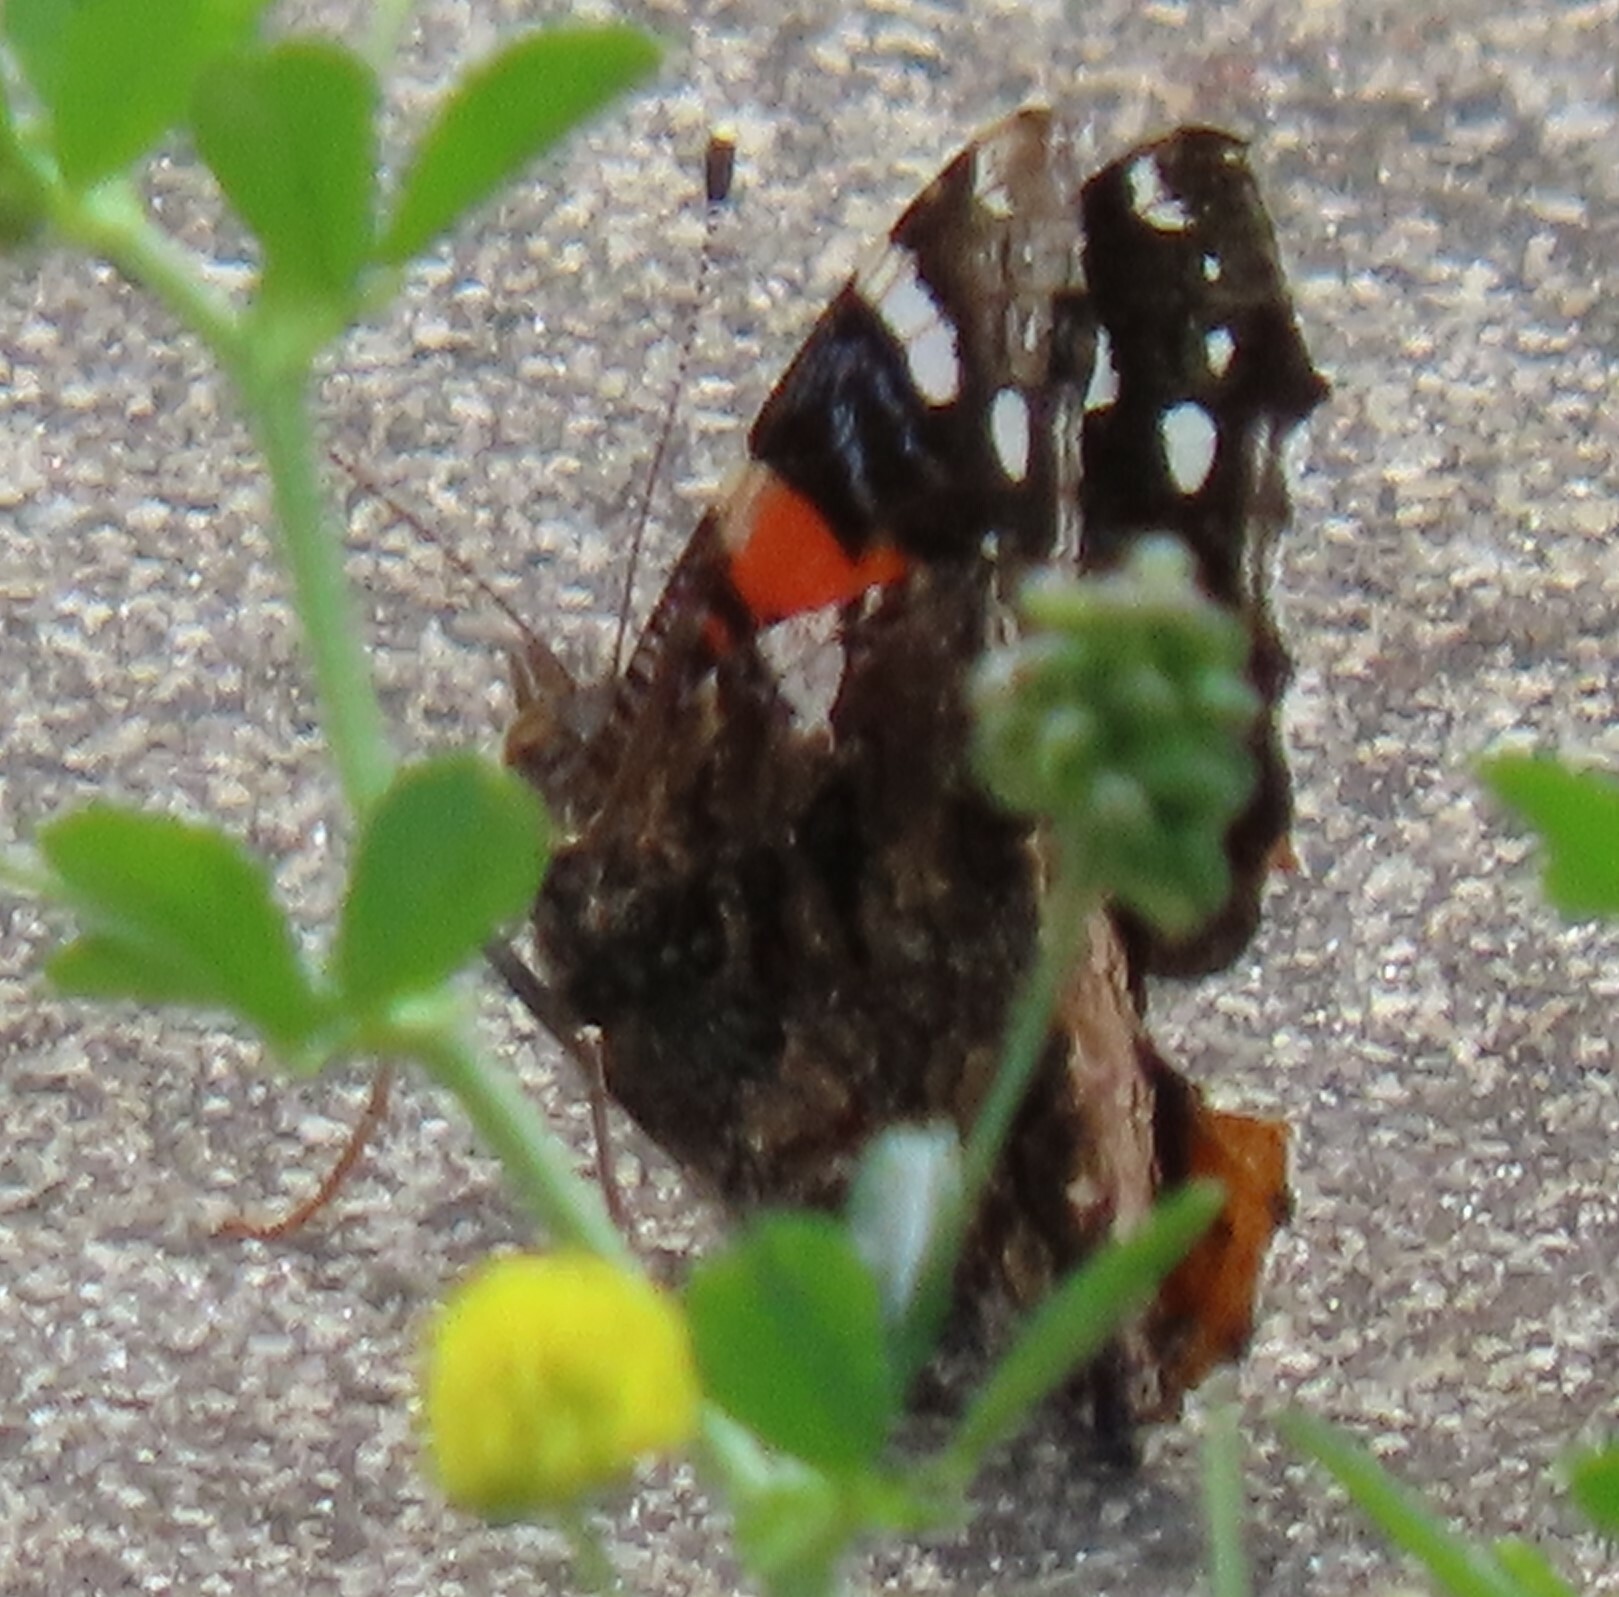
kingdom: Animalia
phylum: Arthropoda
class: Insecta
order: Lepidoptera
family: Nymphalidae
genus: Vanessa
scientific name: Vanessa atalanta
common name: Red admiral
